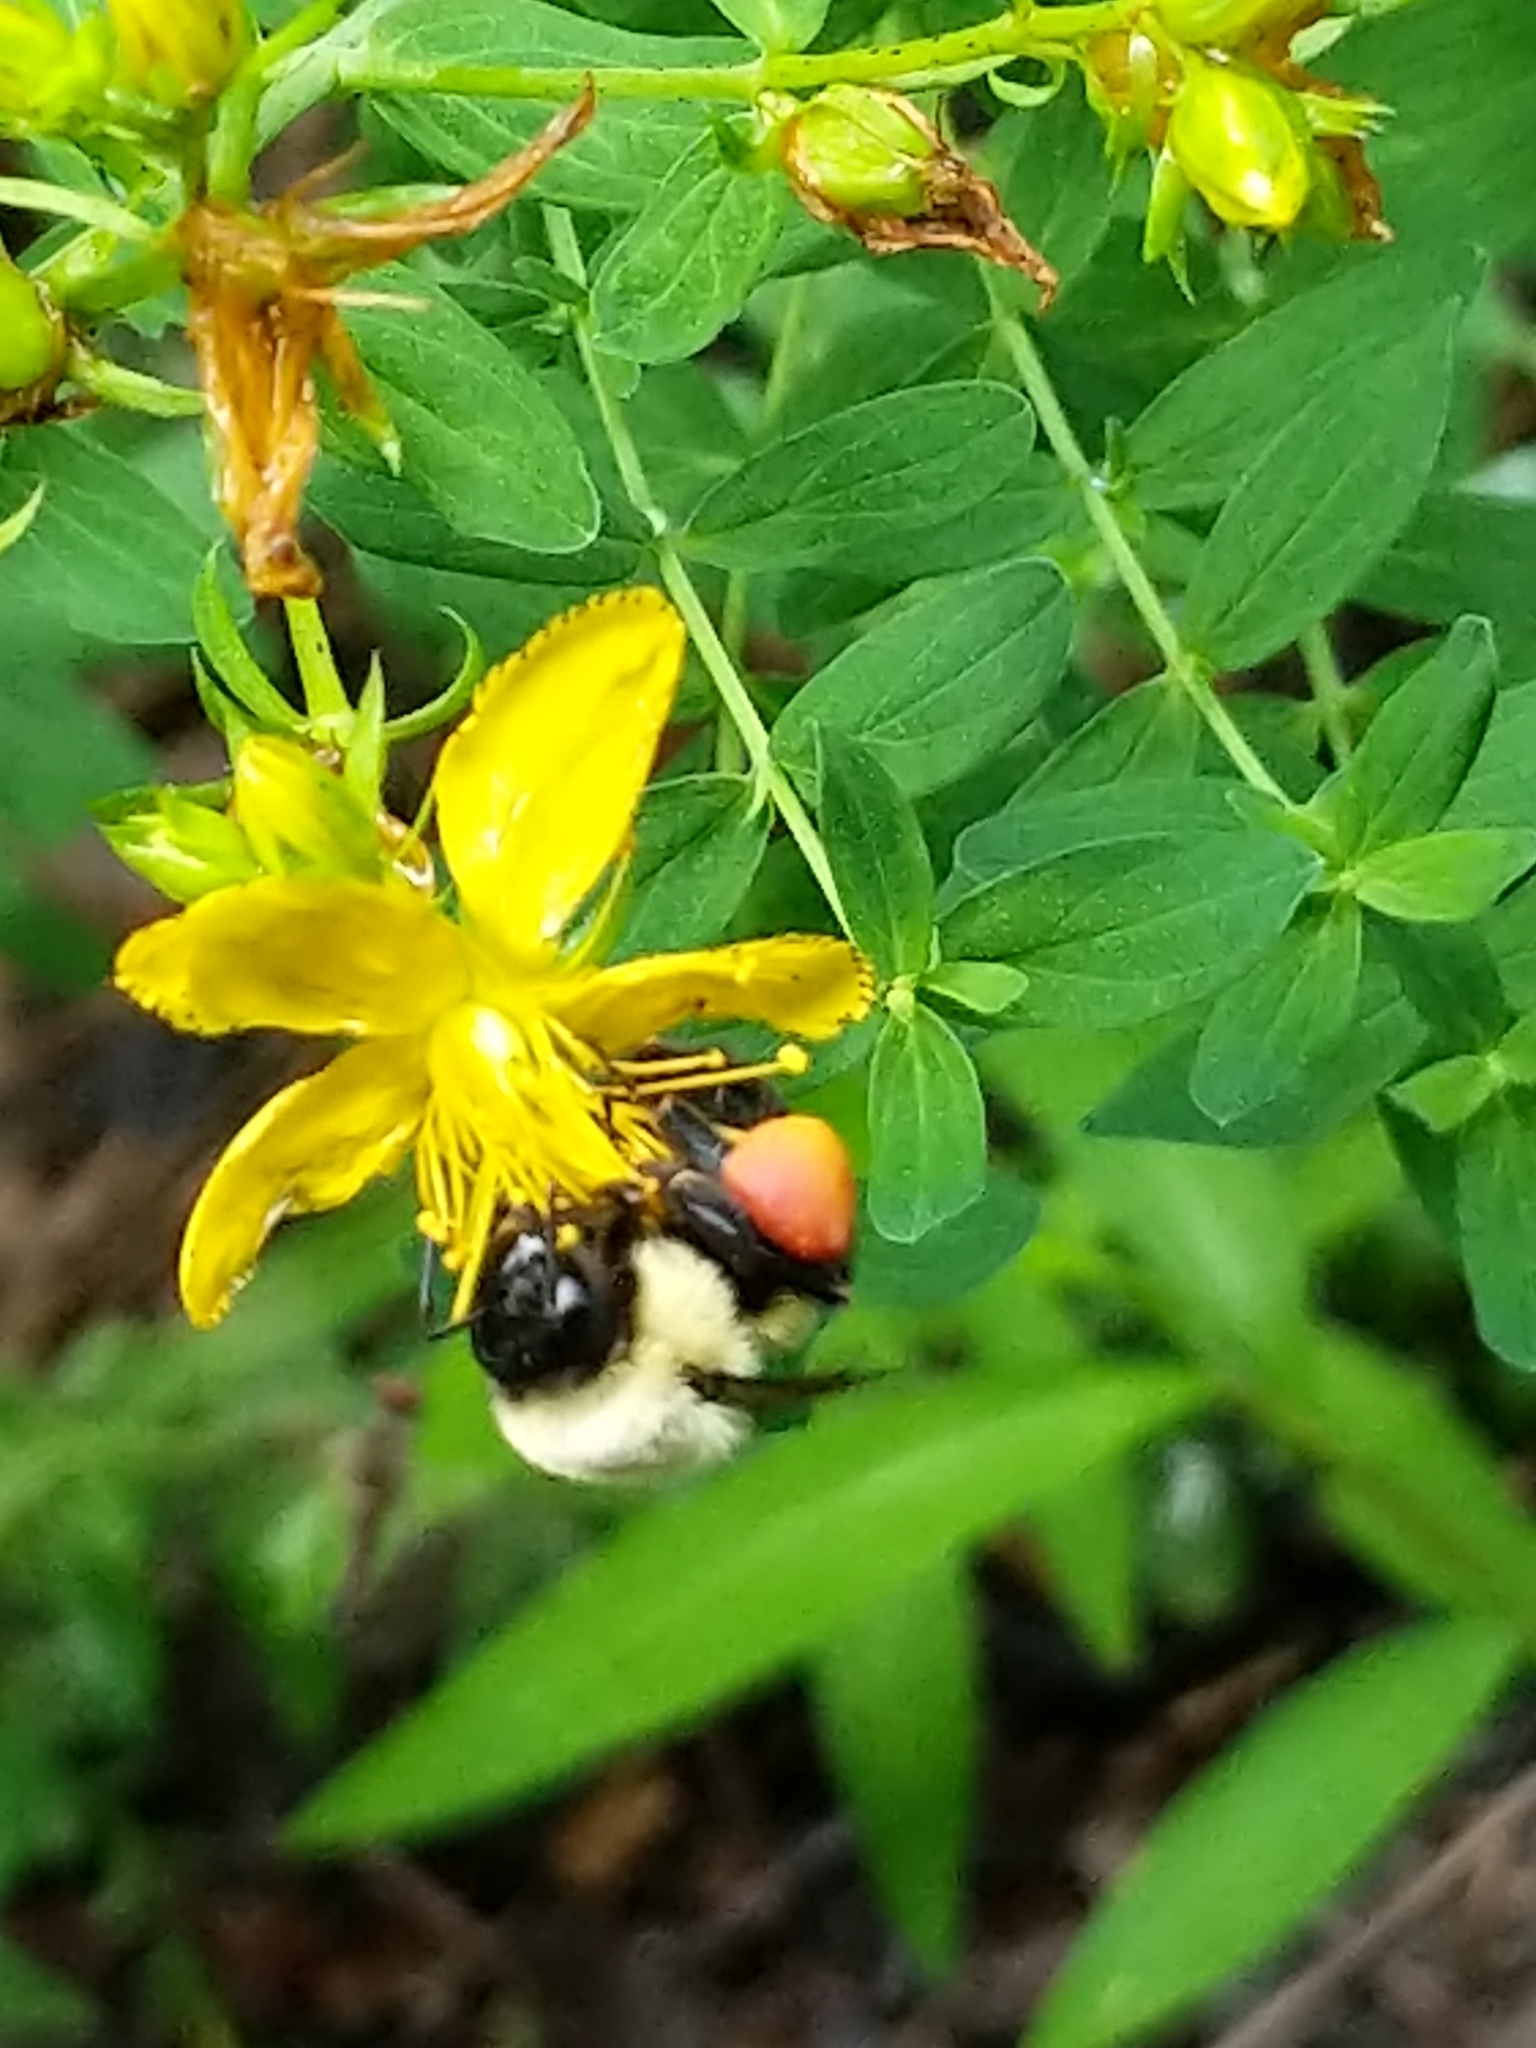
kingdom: Animalia
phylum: Arthropoda
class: Insecta
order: Hymenoptera
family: Apidae
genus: Bombus
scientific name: Bombus impatiens
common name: Common eastern bumble bee
